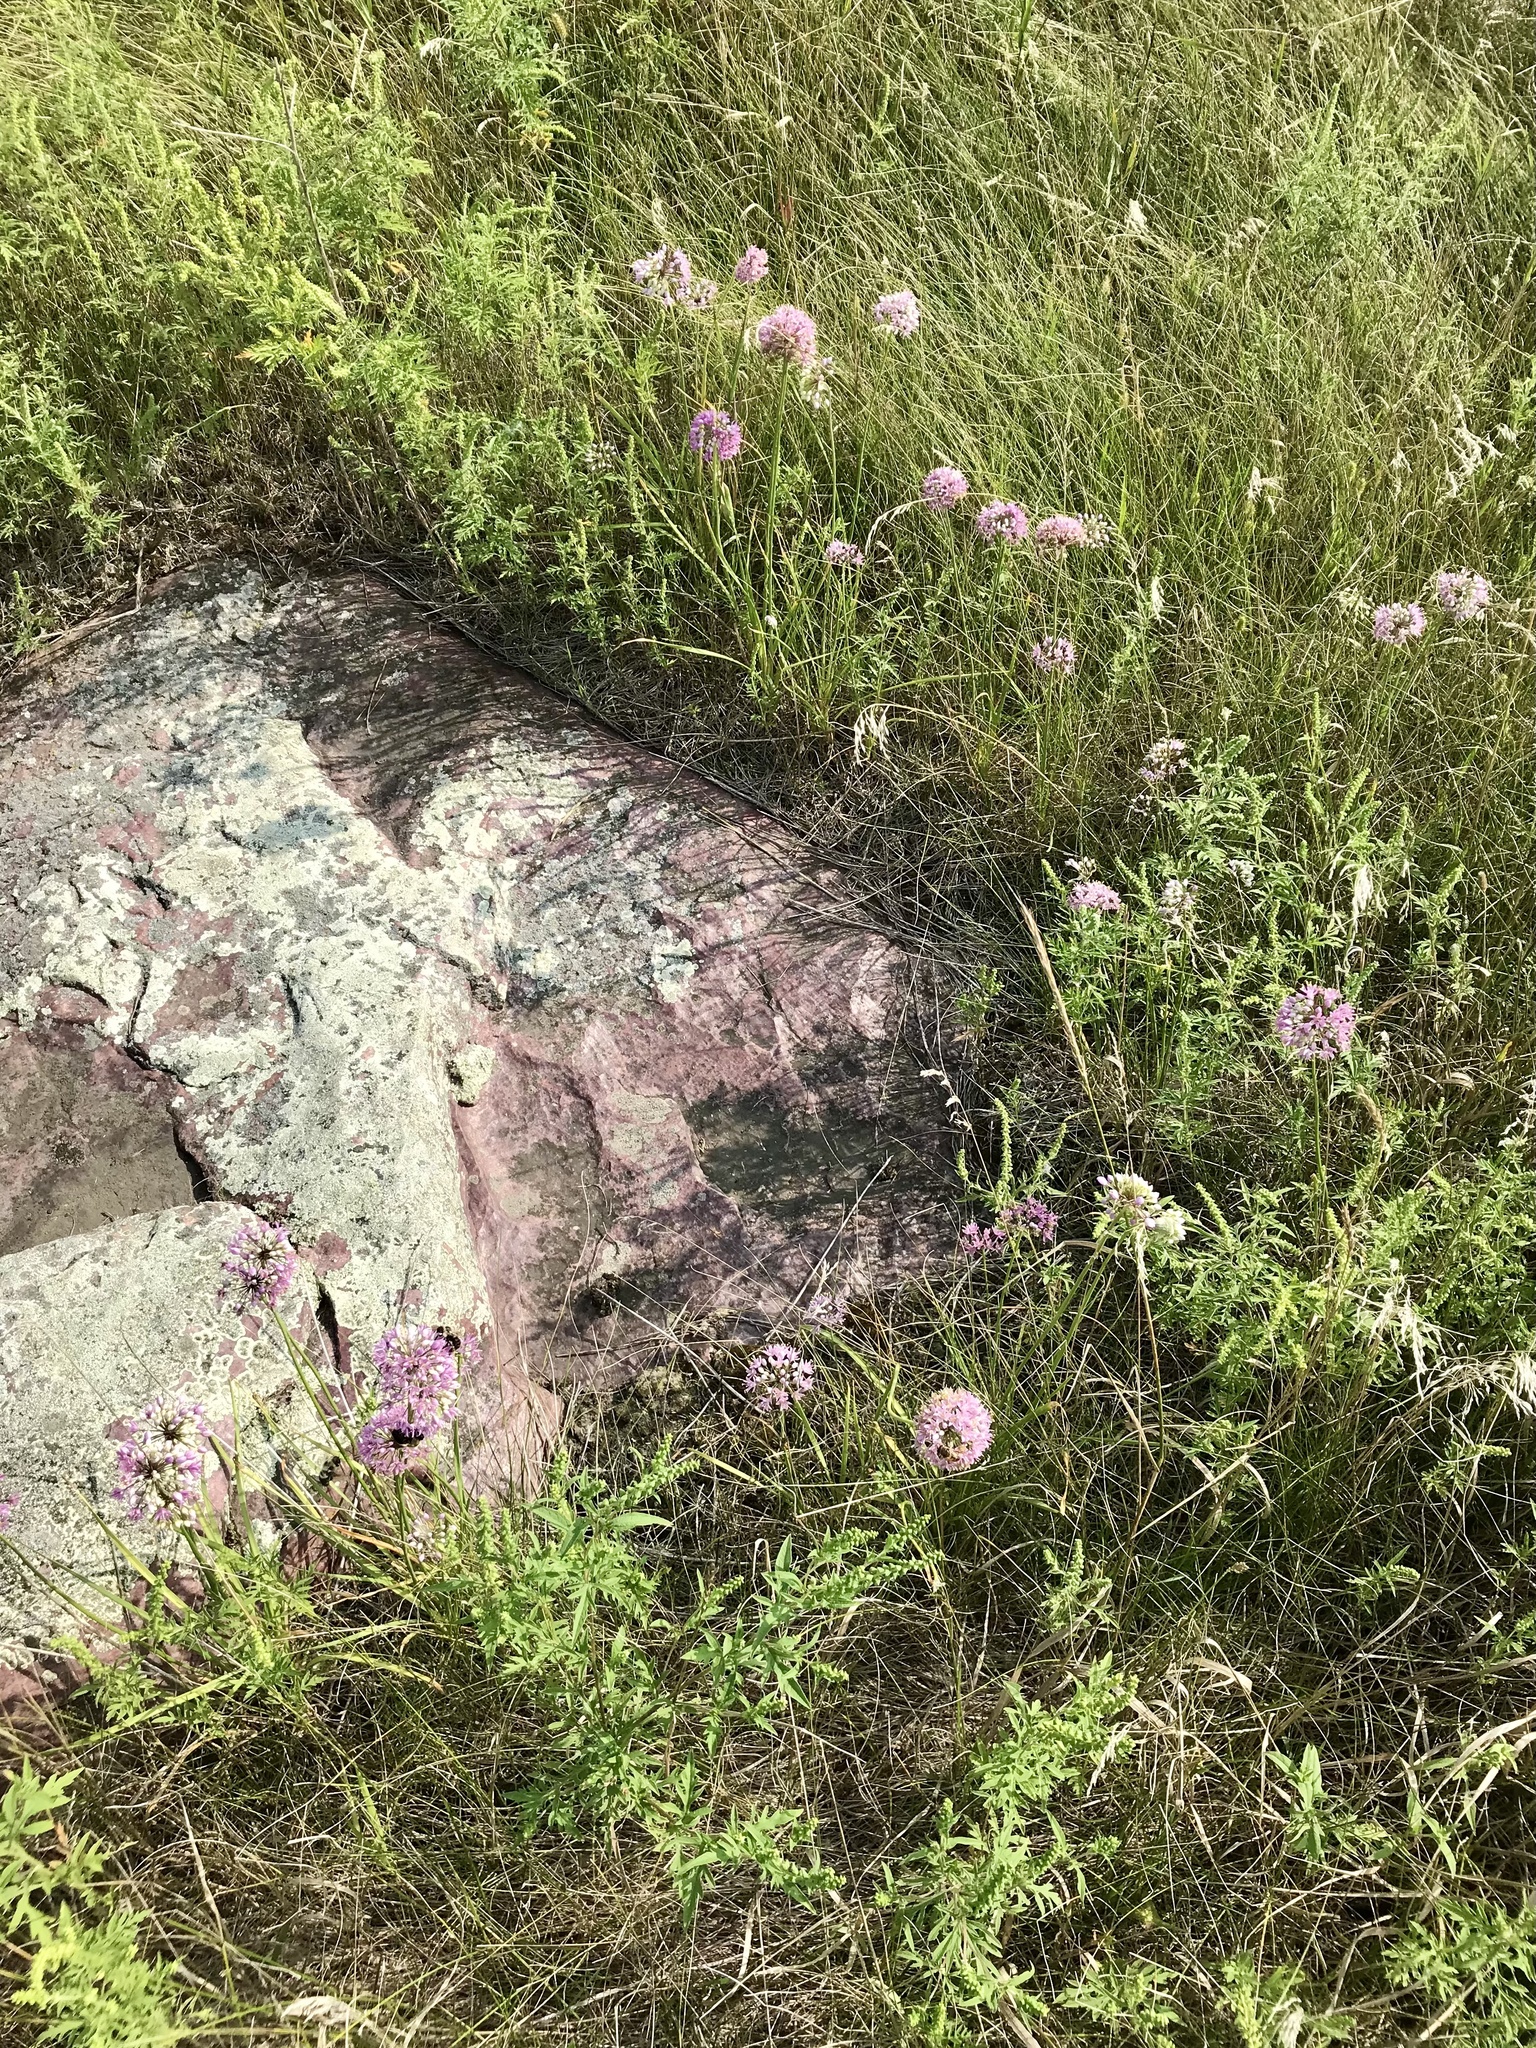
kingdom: Plantae
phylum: Tracheophyta
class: Liliopsida
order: Asparagales
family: Amaryllidaceae
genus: Allium
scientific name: Allium stellatum
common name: Autumn onion
